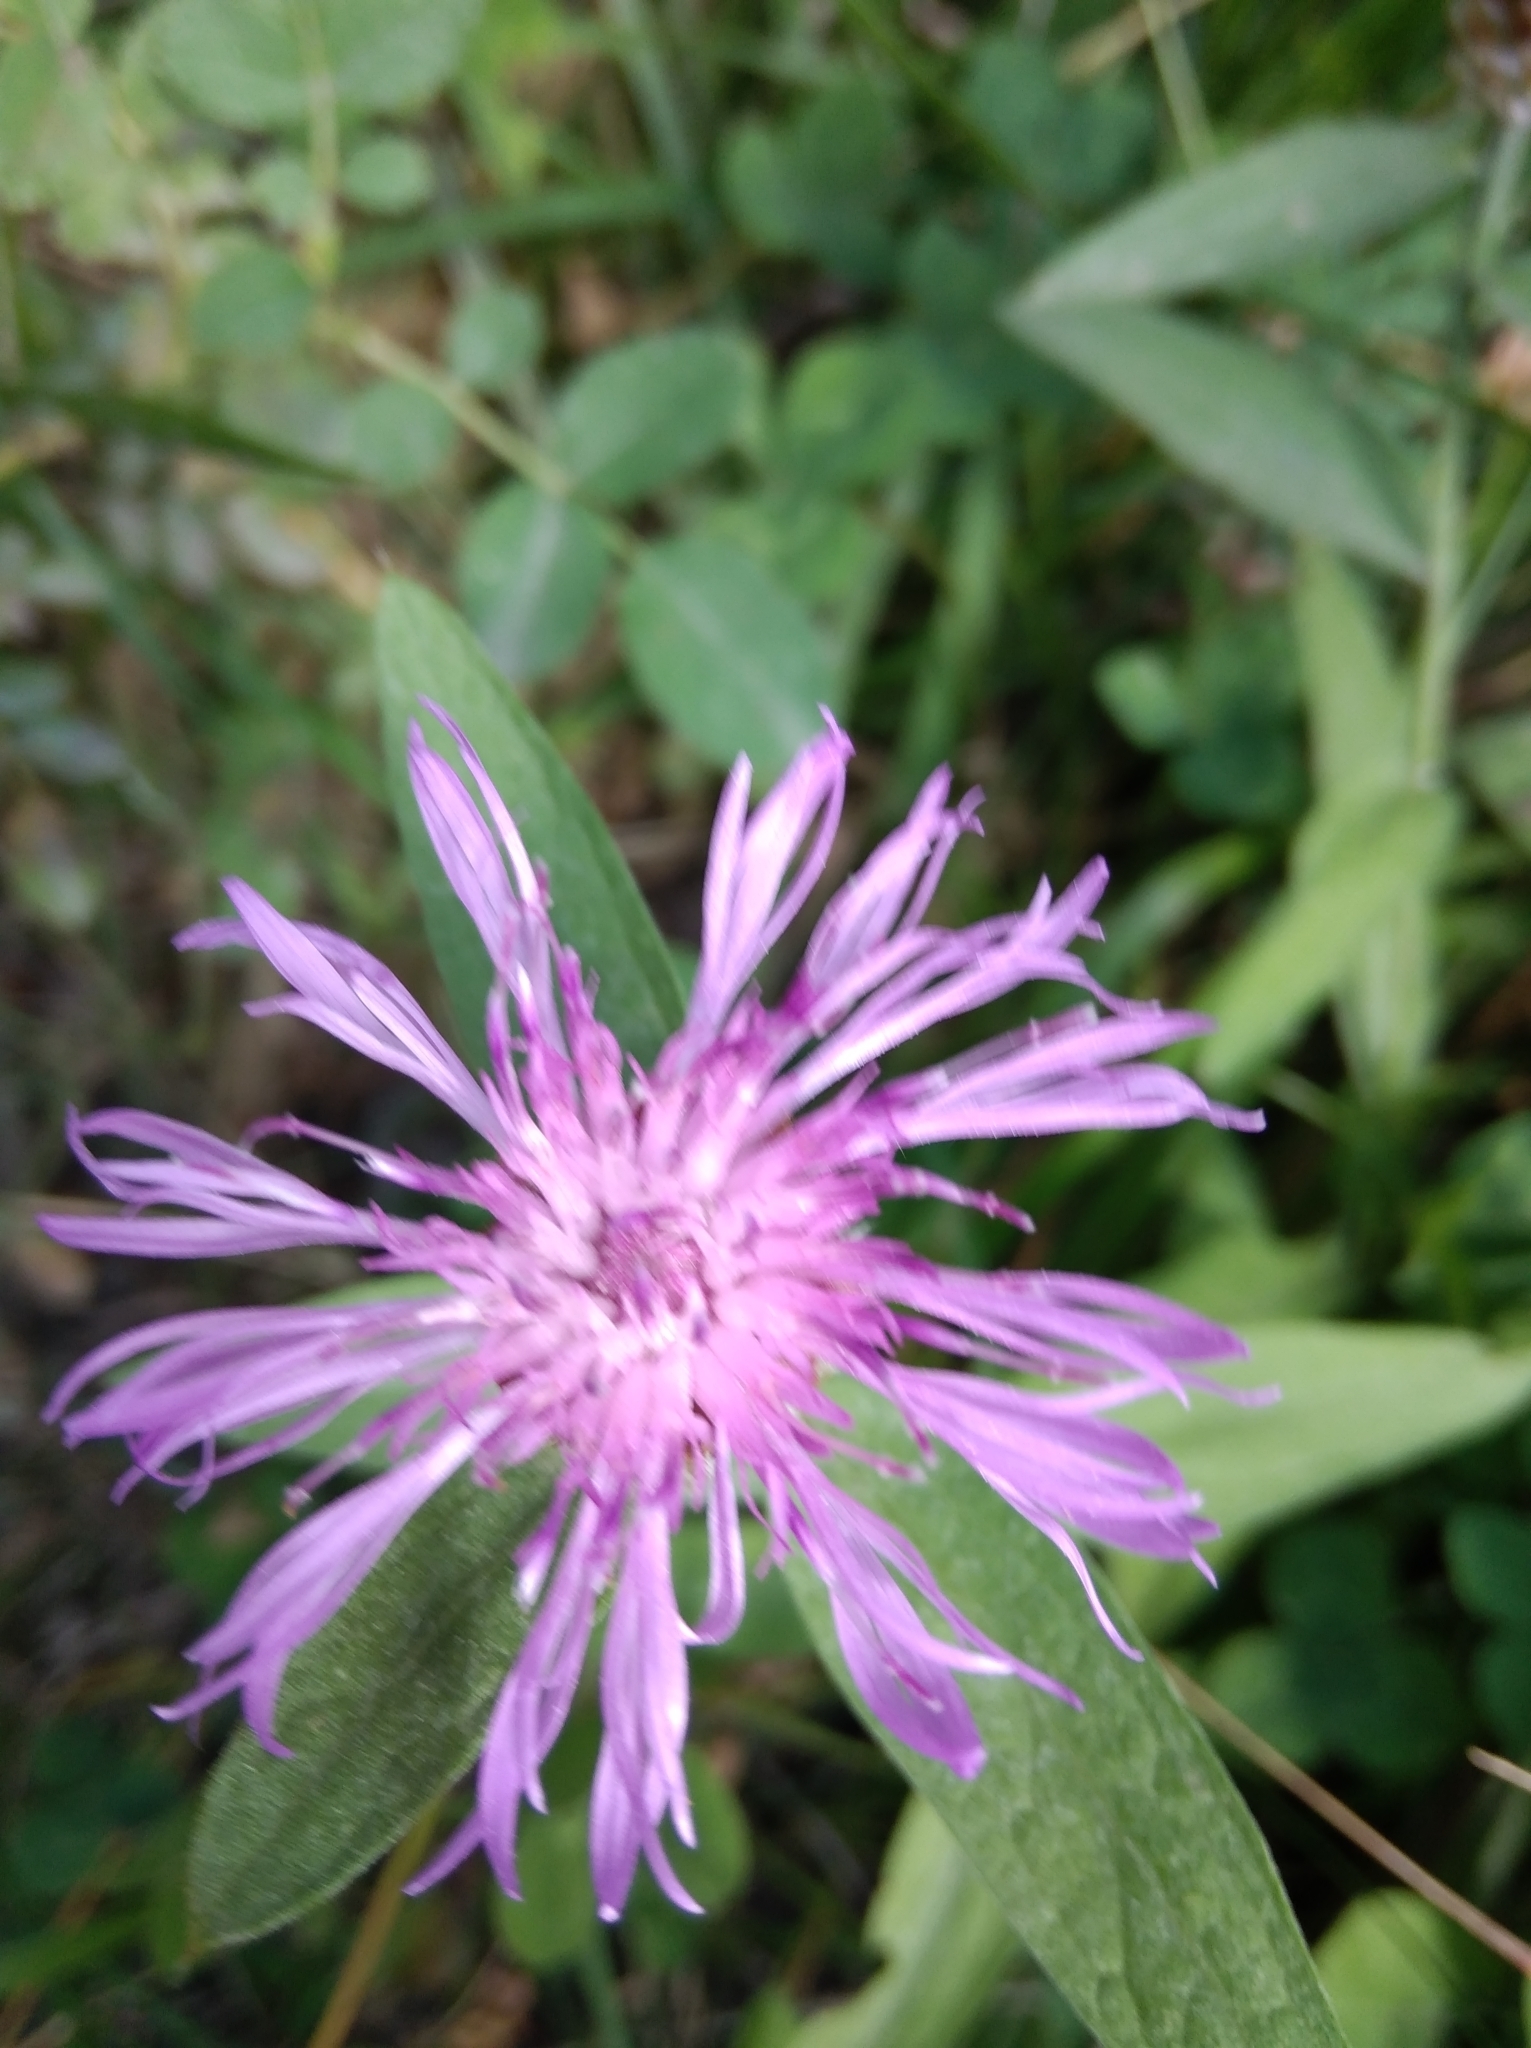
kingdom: Plantae
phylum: Tracheophyta
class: Magnoliopsida
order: Asterales
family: Asteraceae
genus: Centaurea
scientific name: Centaurea jacea
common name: Brown knapweed
